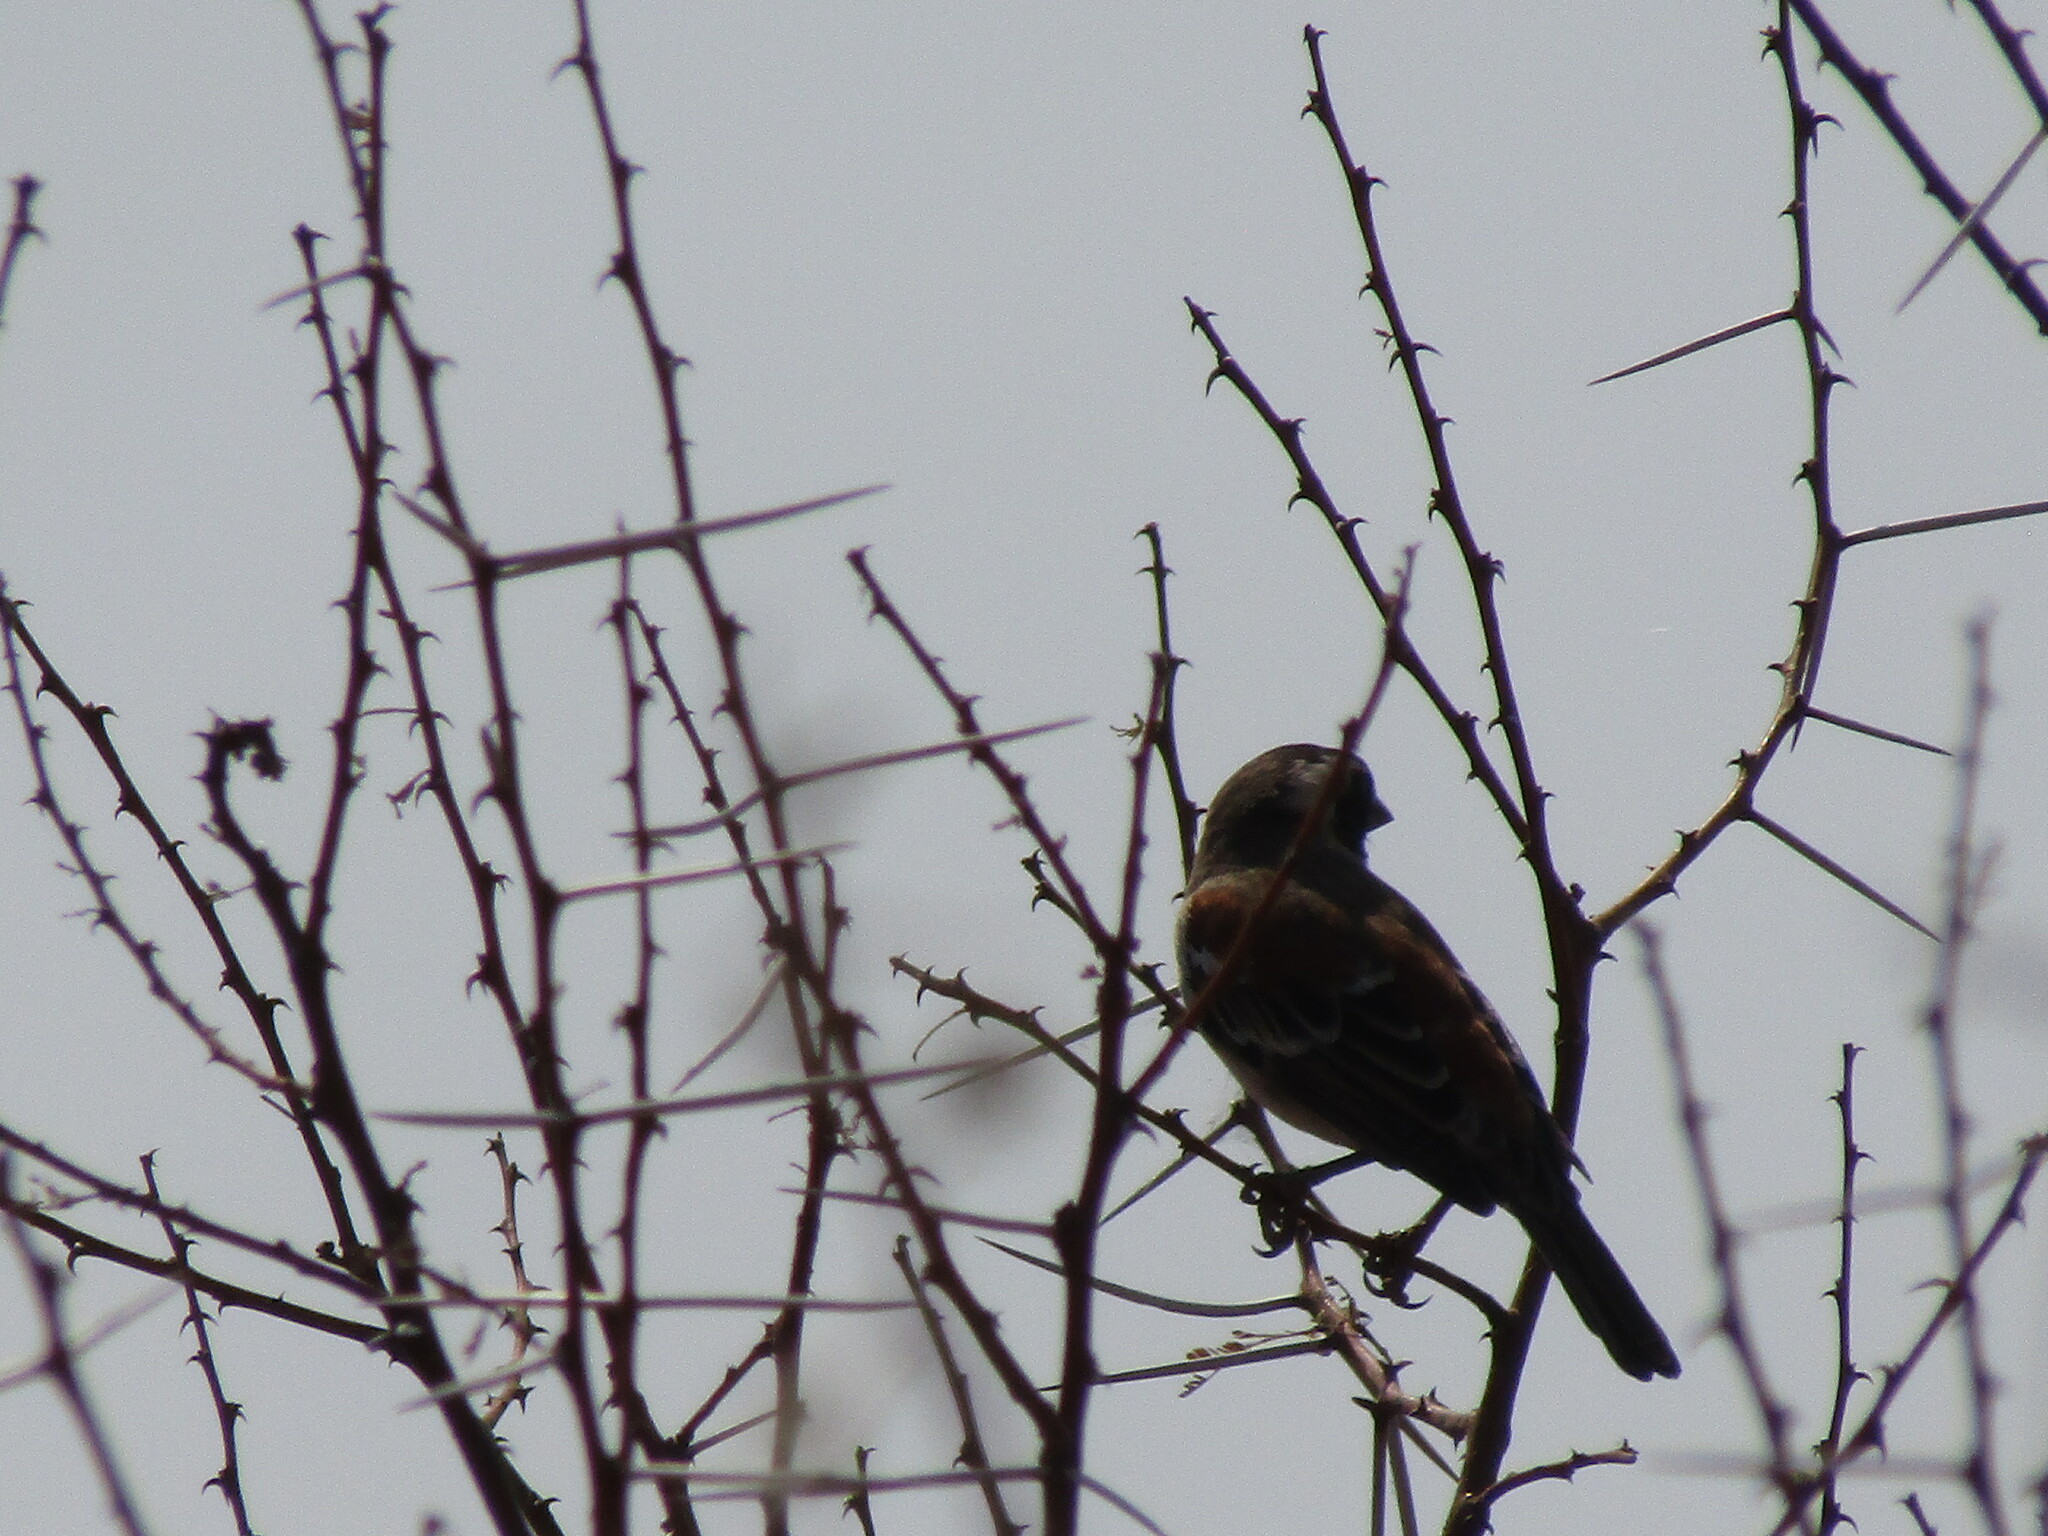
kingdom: Animalia
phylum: Chordata
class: Aves
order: Passeriformes
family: Passeridae
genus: Passer
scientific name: Passer melanurus
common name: Cape sparrow
